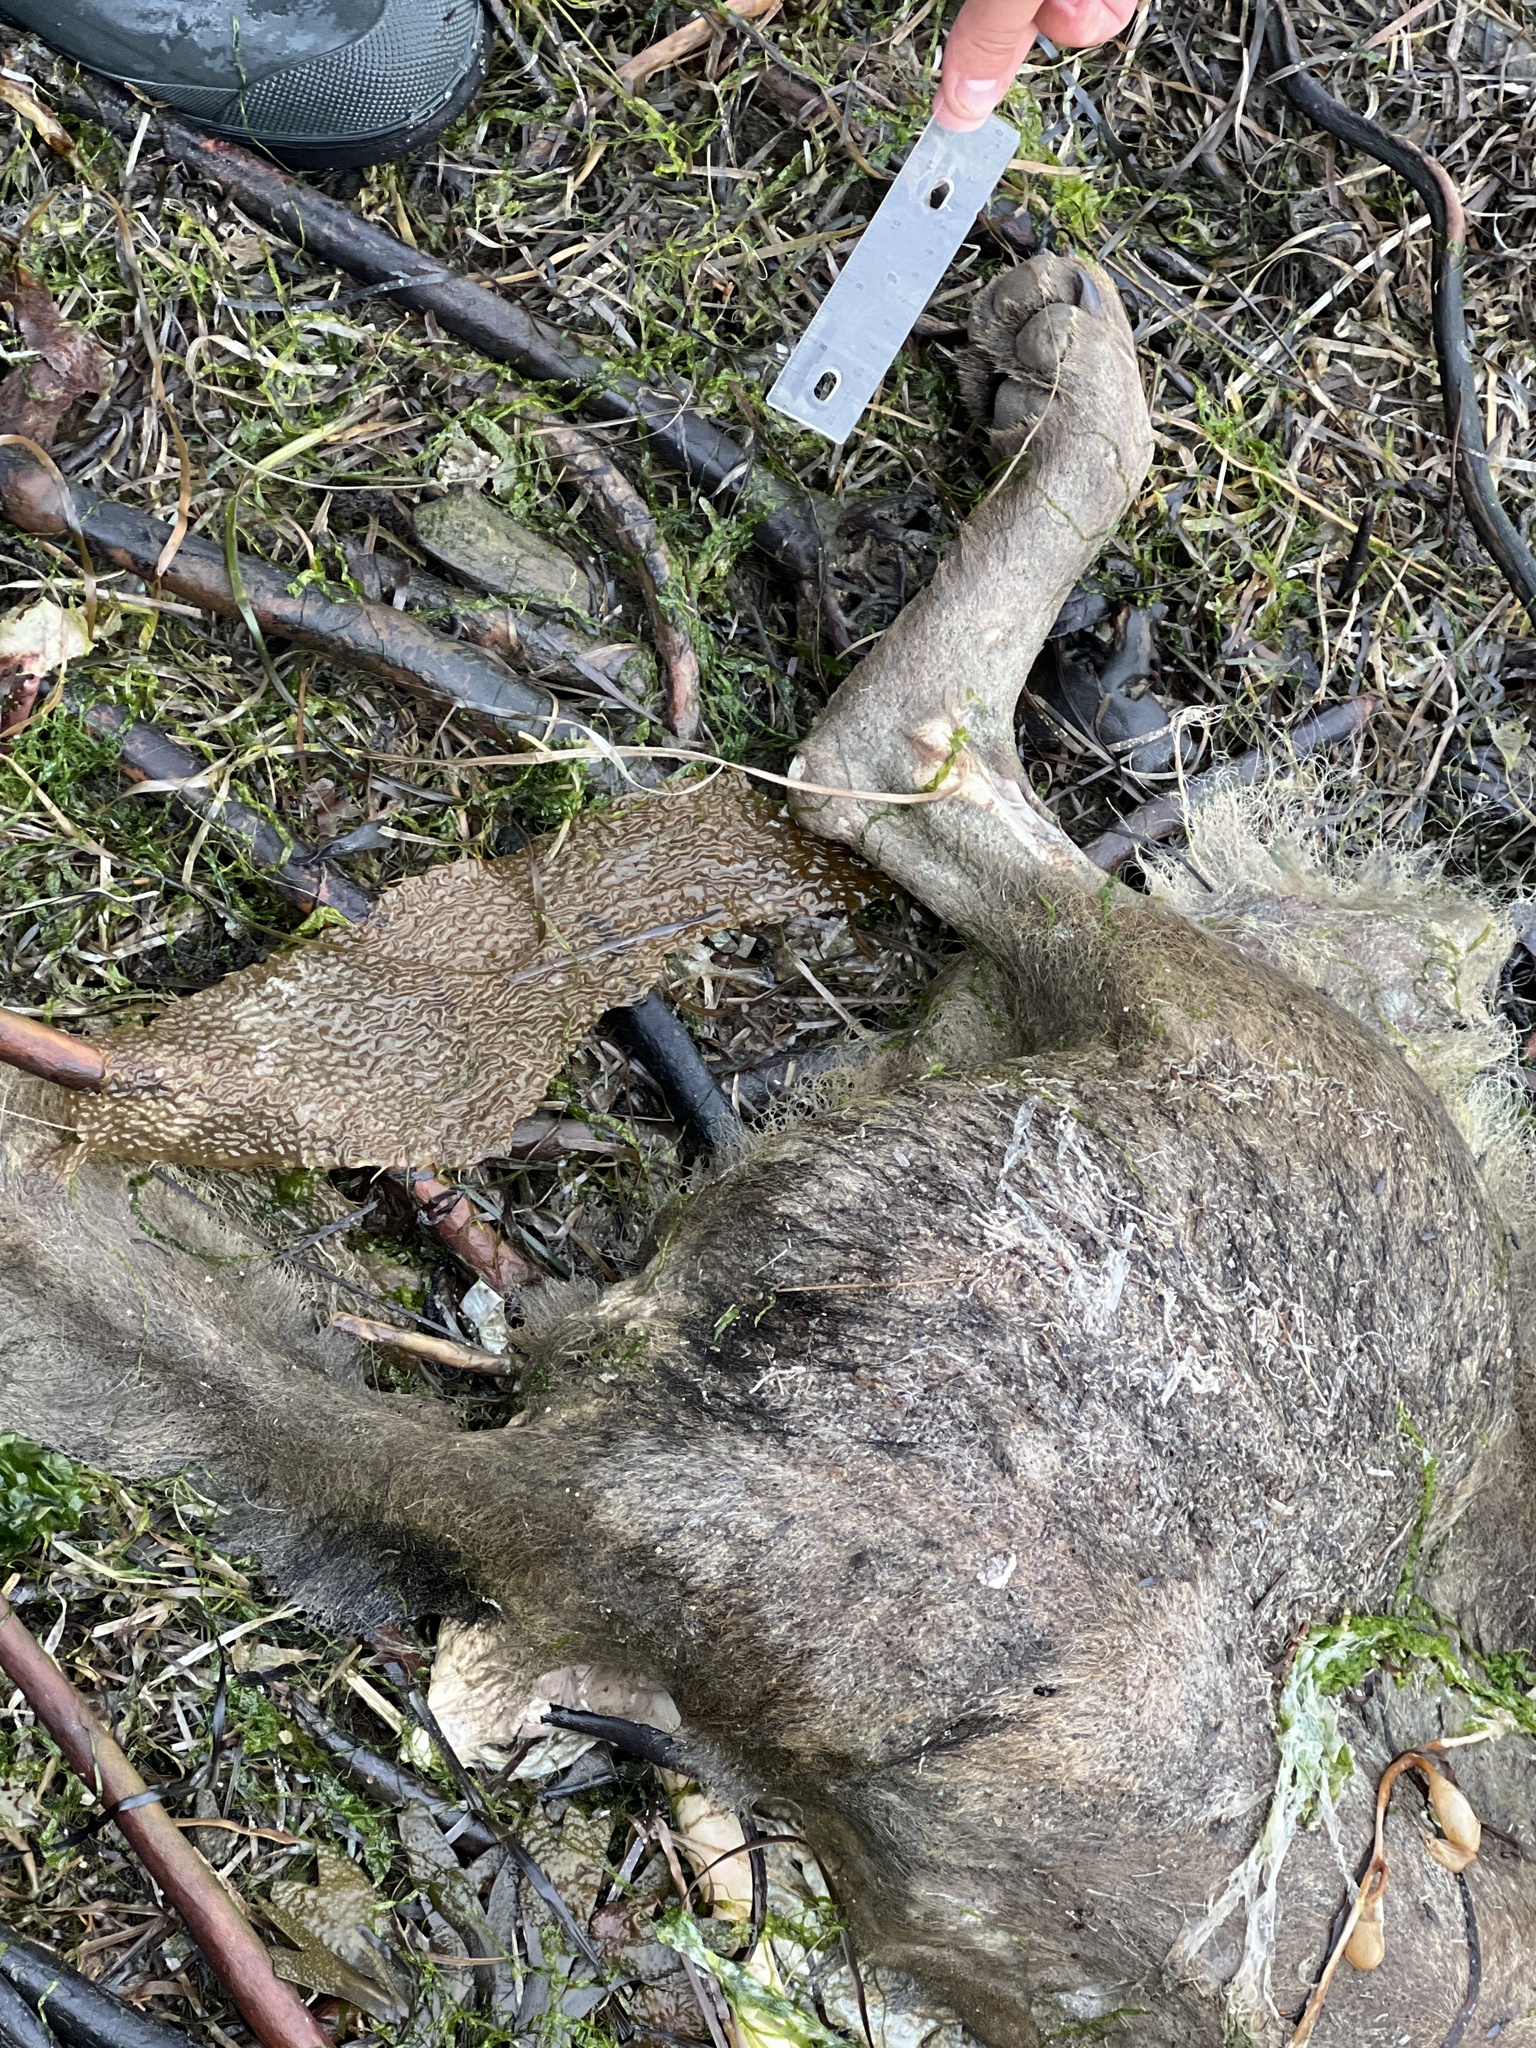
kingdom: Animalia
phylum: Chordata
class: Mammalia
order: Carnivora
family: Canidae
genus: Canis
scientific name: Canis lupus
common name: Gray wolf
